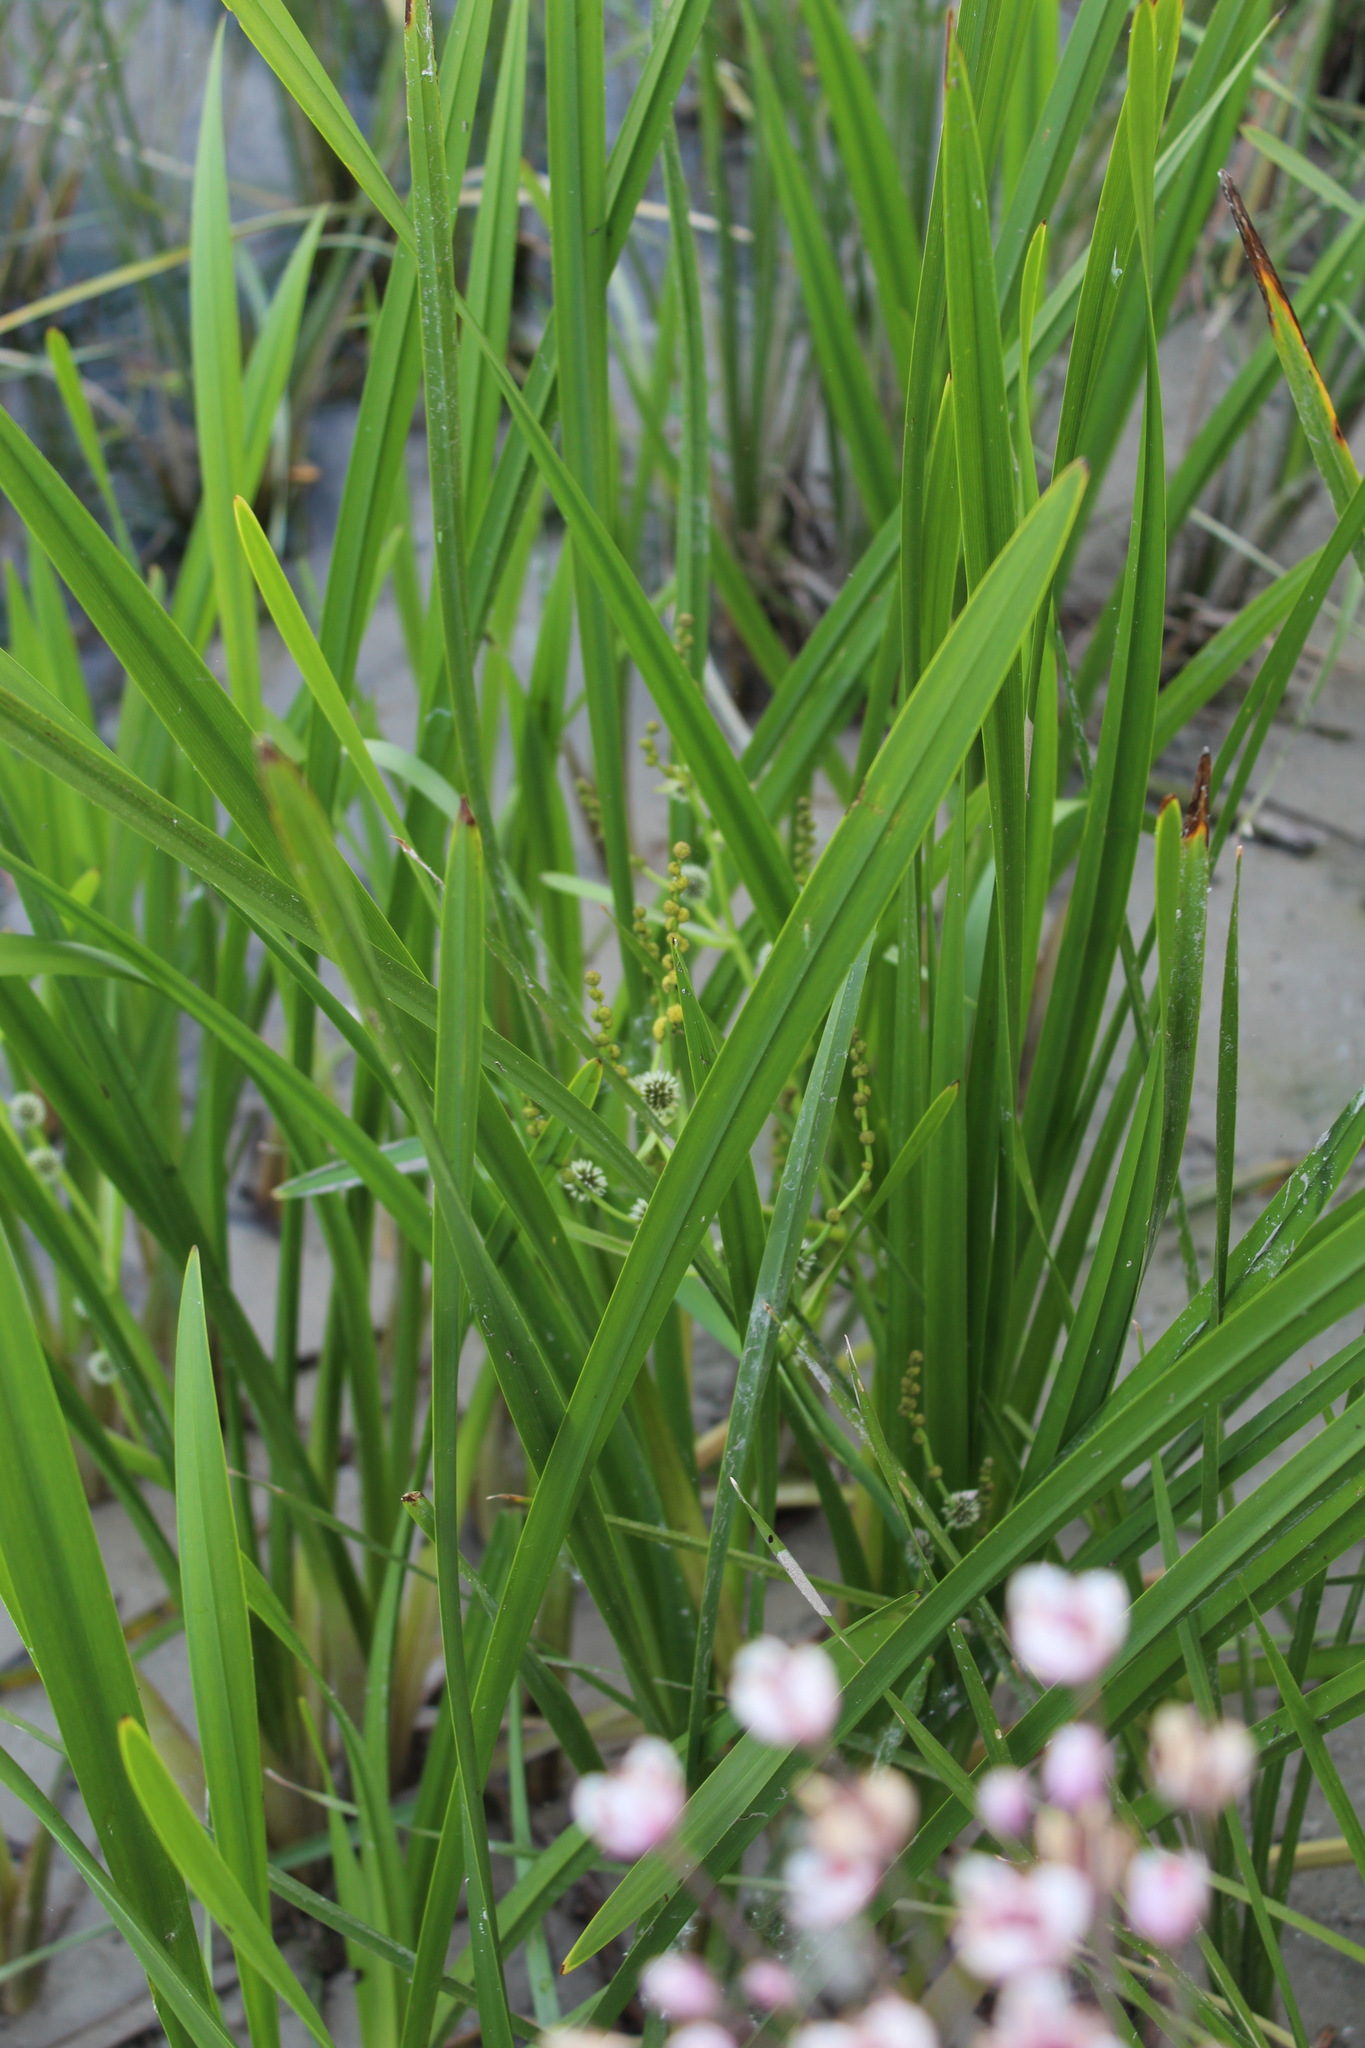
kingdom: Plantae
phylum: Tracheophyta
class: Liliopsida
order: Poales
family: Typhaceae
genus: Sparganium
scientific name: Sparganium erectum
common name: Branched bur-reed
